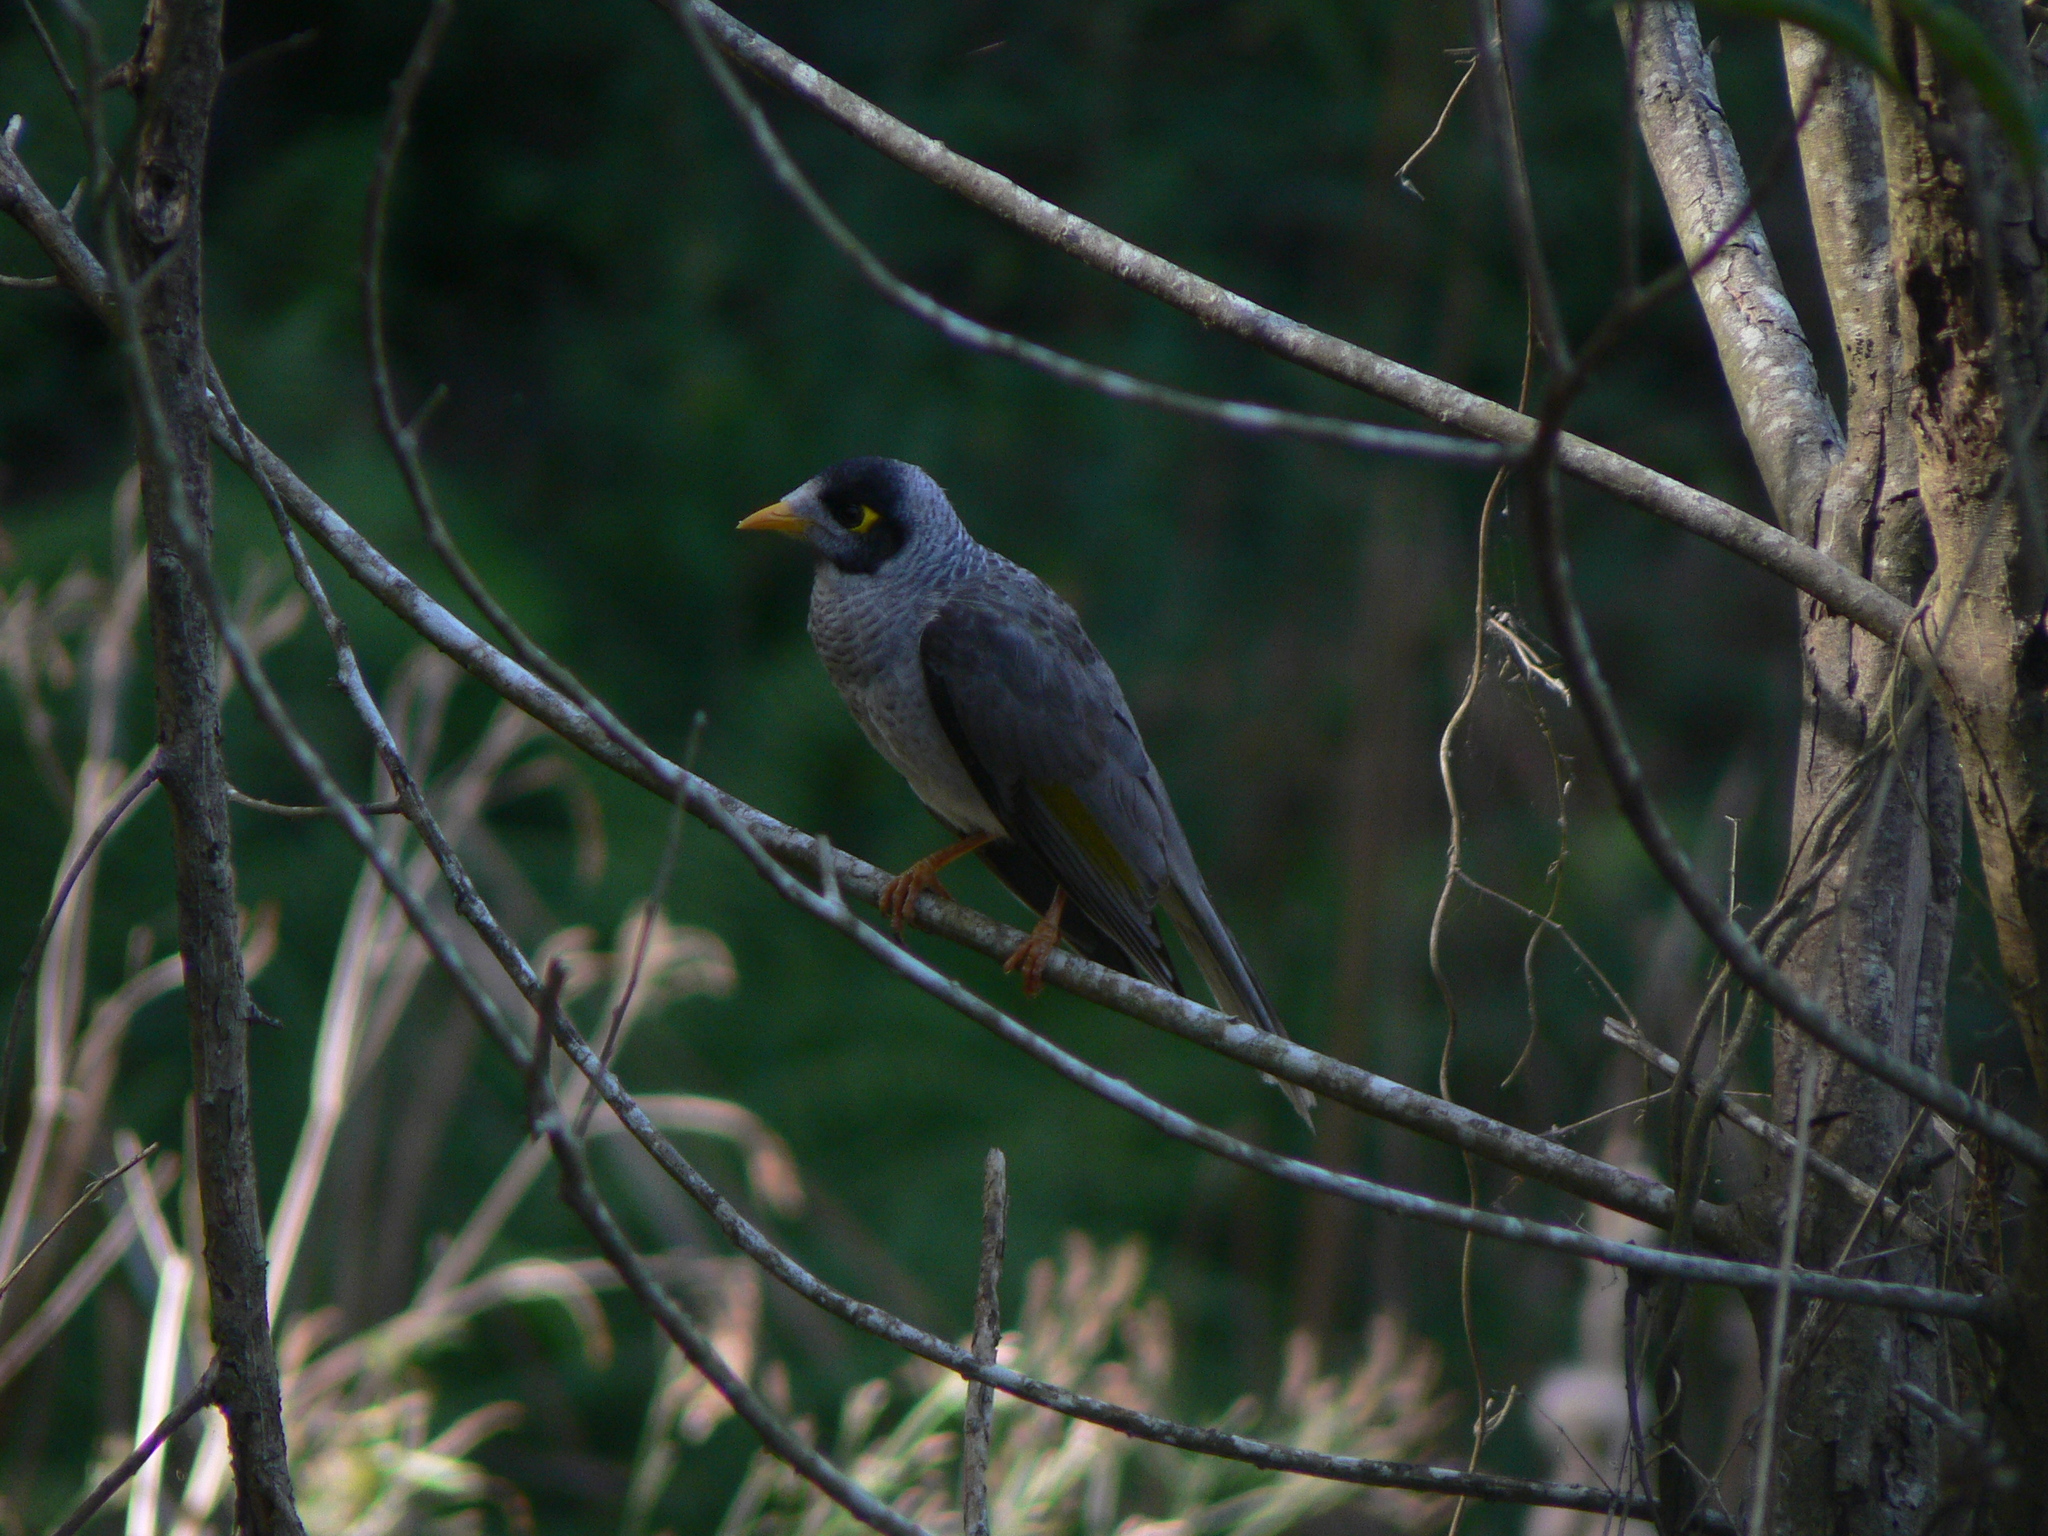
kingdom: Animalia
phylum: Chordata
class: Aves
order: Passeriformes
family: Meliphagidae
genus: Manorina
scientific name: Manorina melanocephala
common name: Noisy miner
